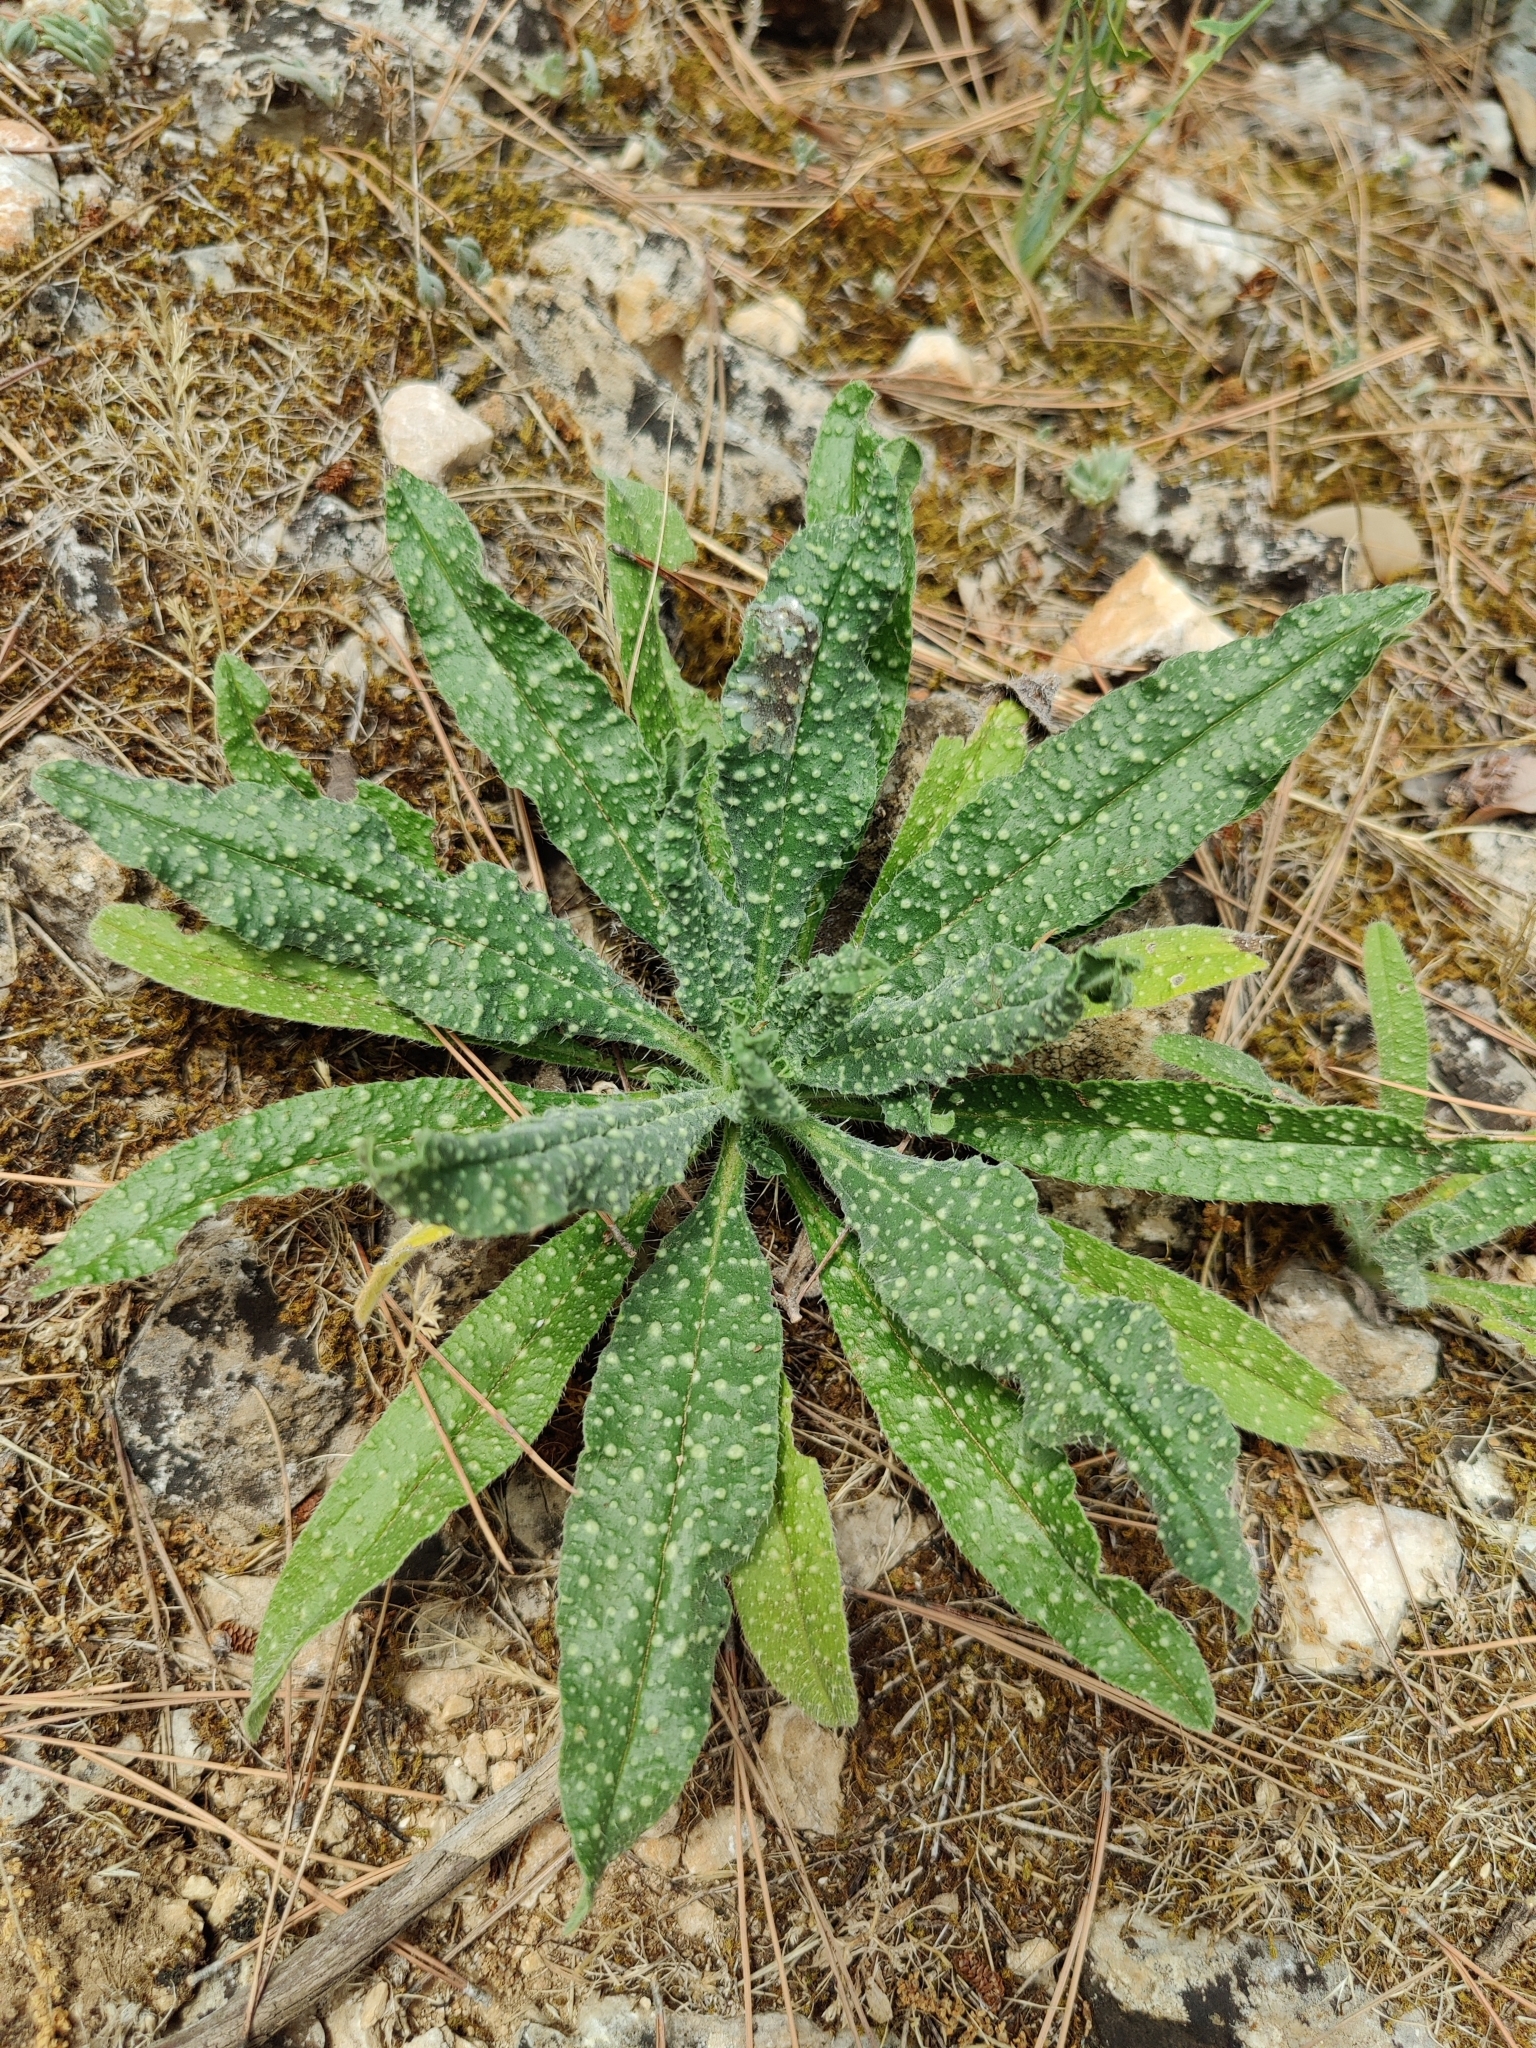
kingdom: Plantae
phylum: Tracheophyta
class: Magnoliopsida
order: Boraginales
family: Boraginaceae
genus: Echium
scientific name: Echium vulgare
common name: Common viper's bugloss
